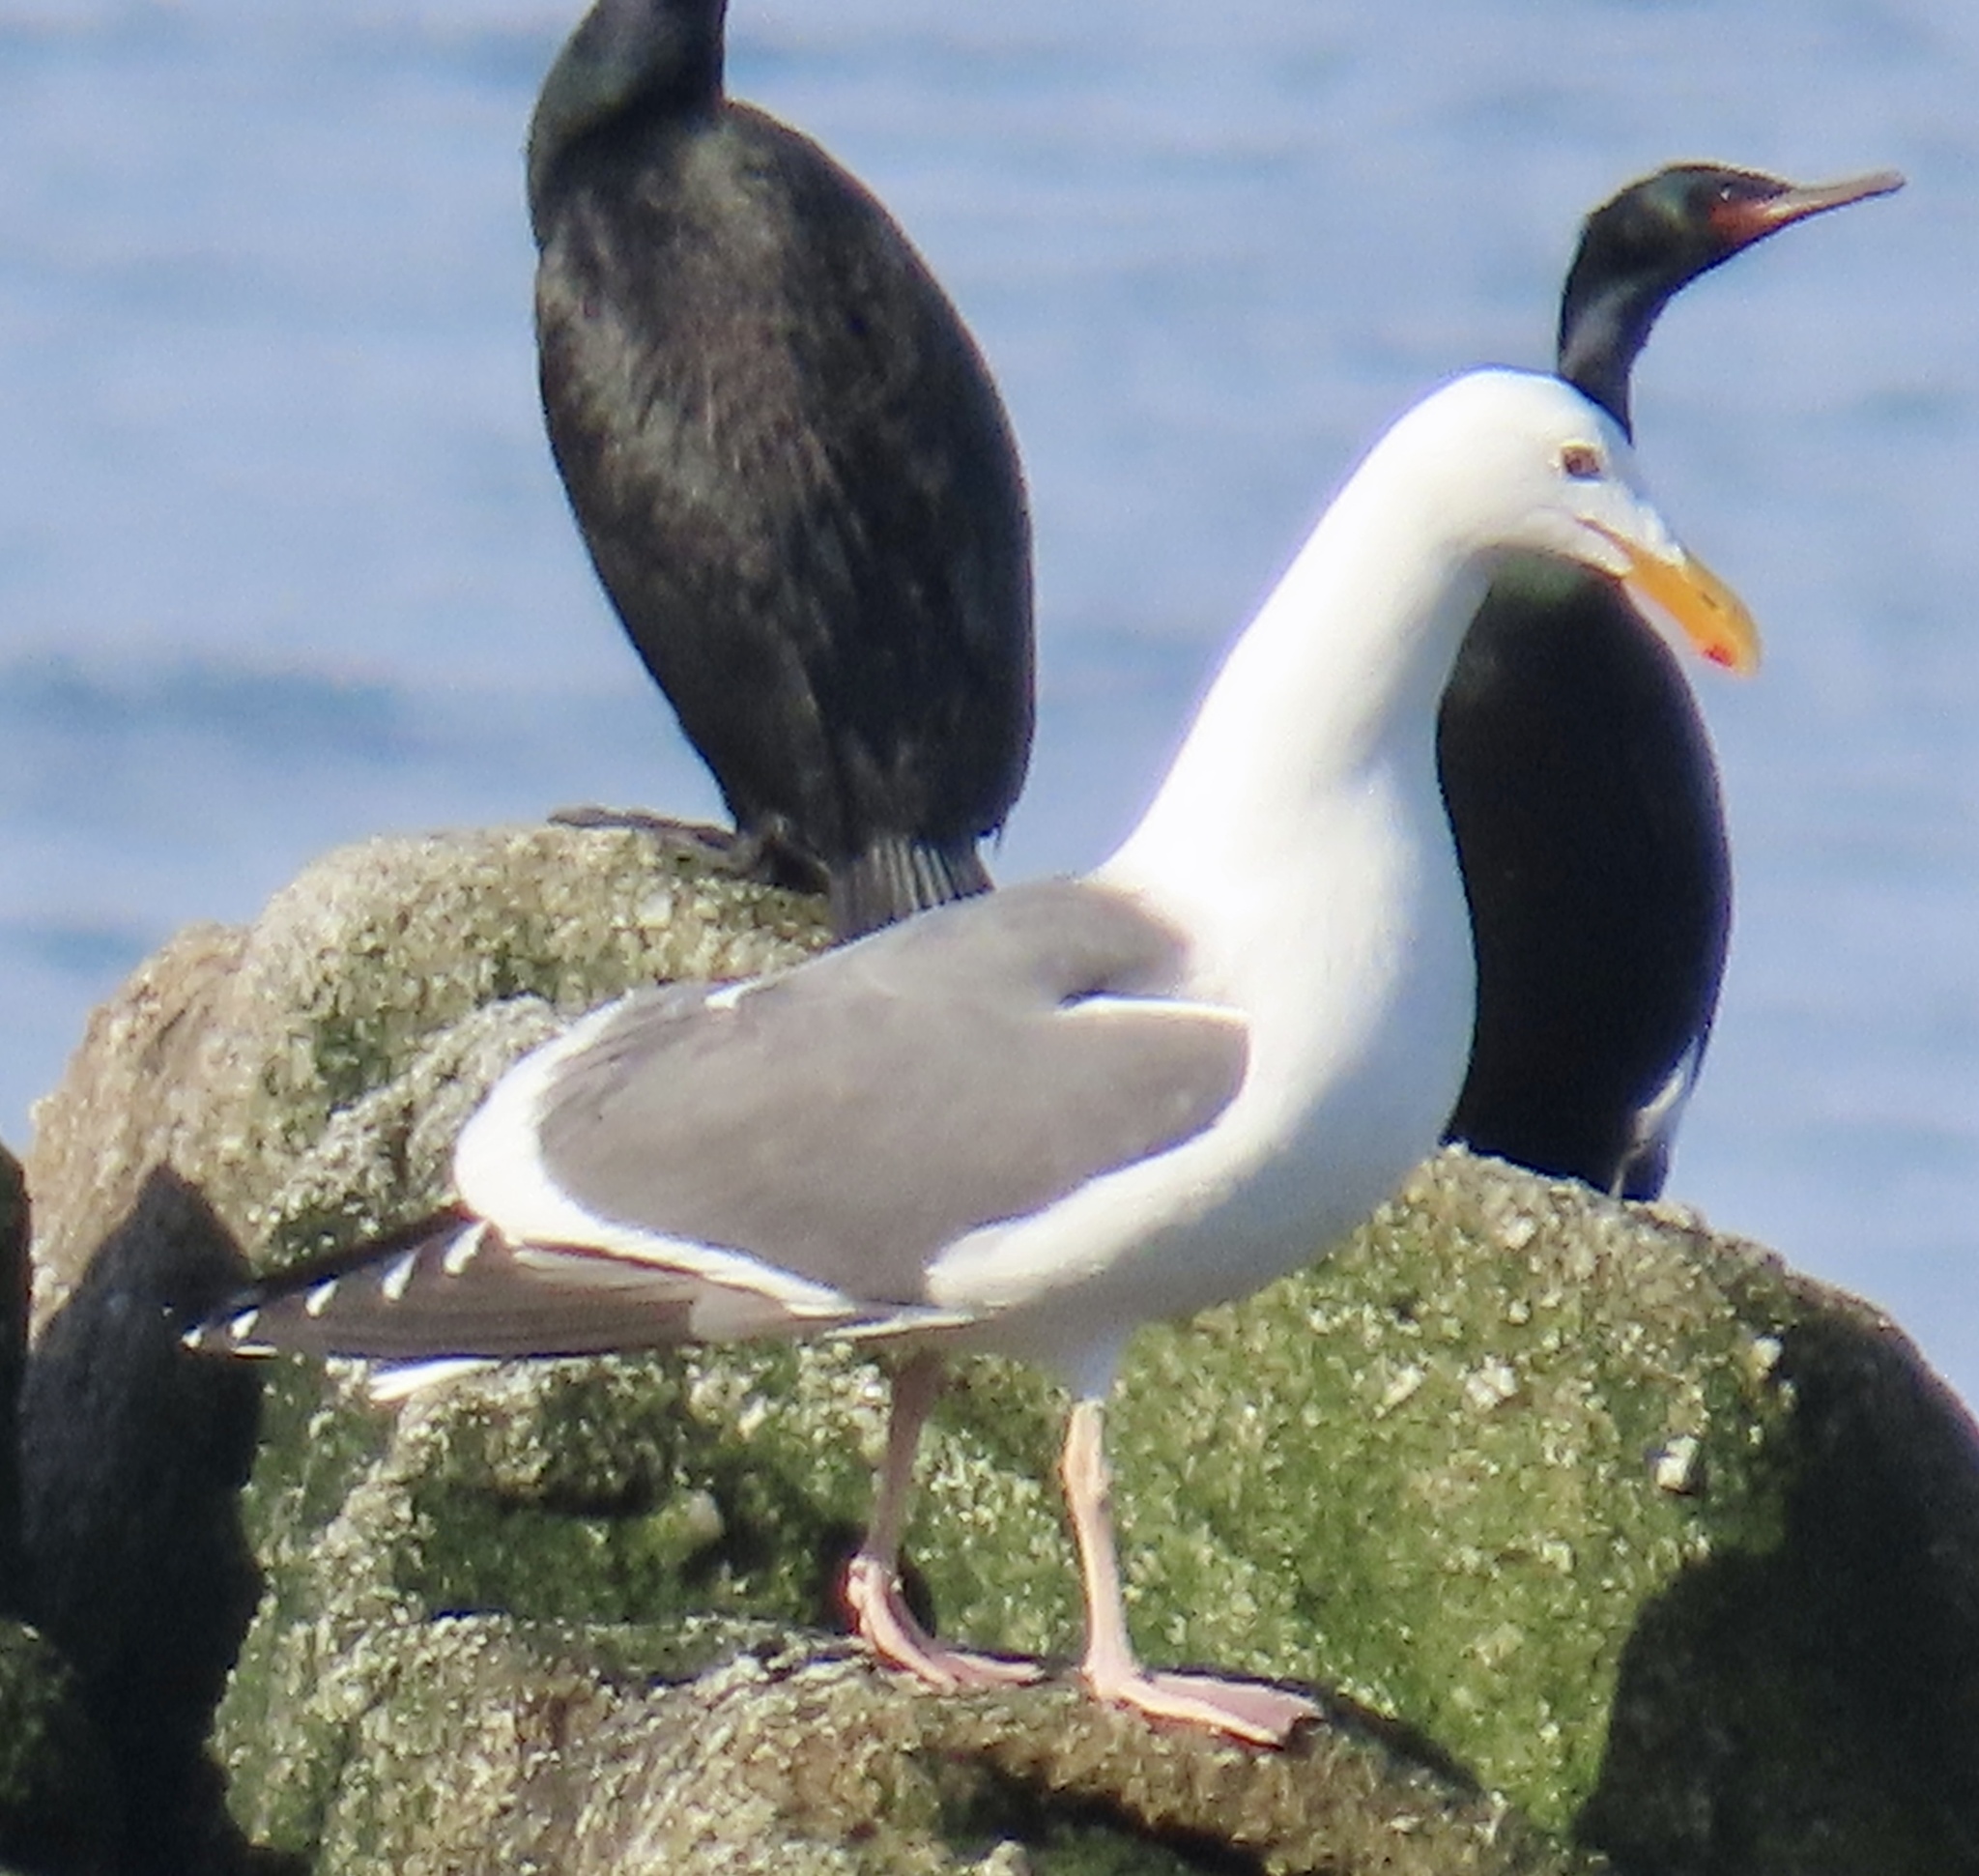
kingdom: Animalia
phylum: Chordata
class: Aves
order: Charadriiformes
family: Laridae
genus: Larus
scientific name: Larus occidentalis
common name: Western gull
